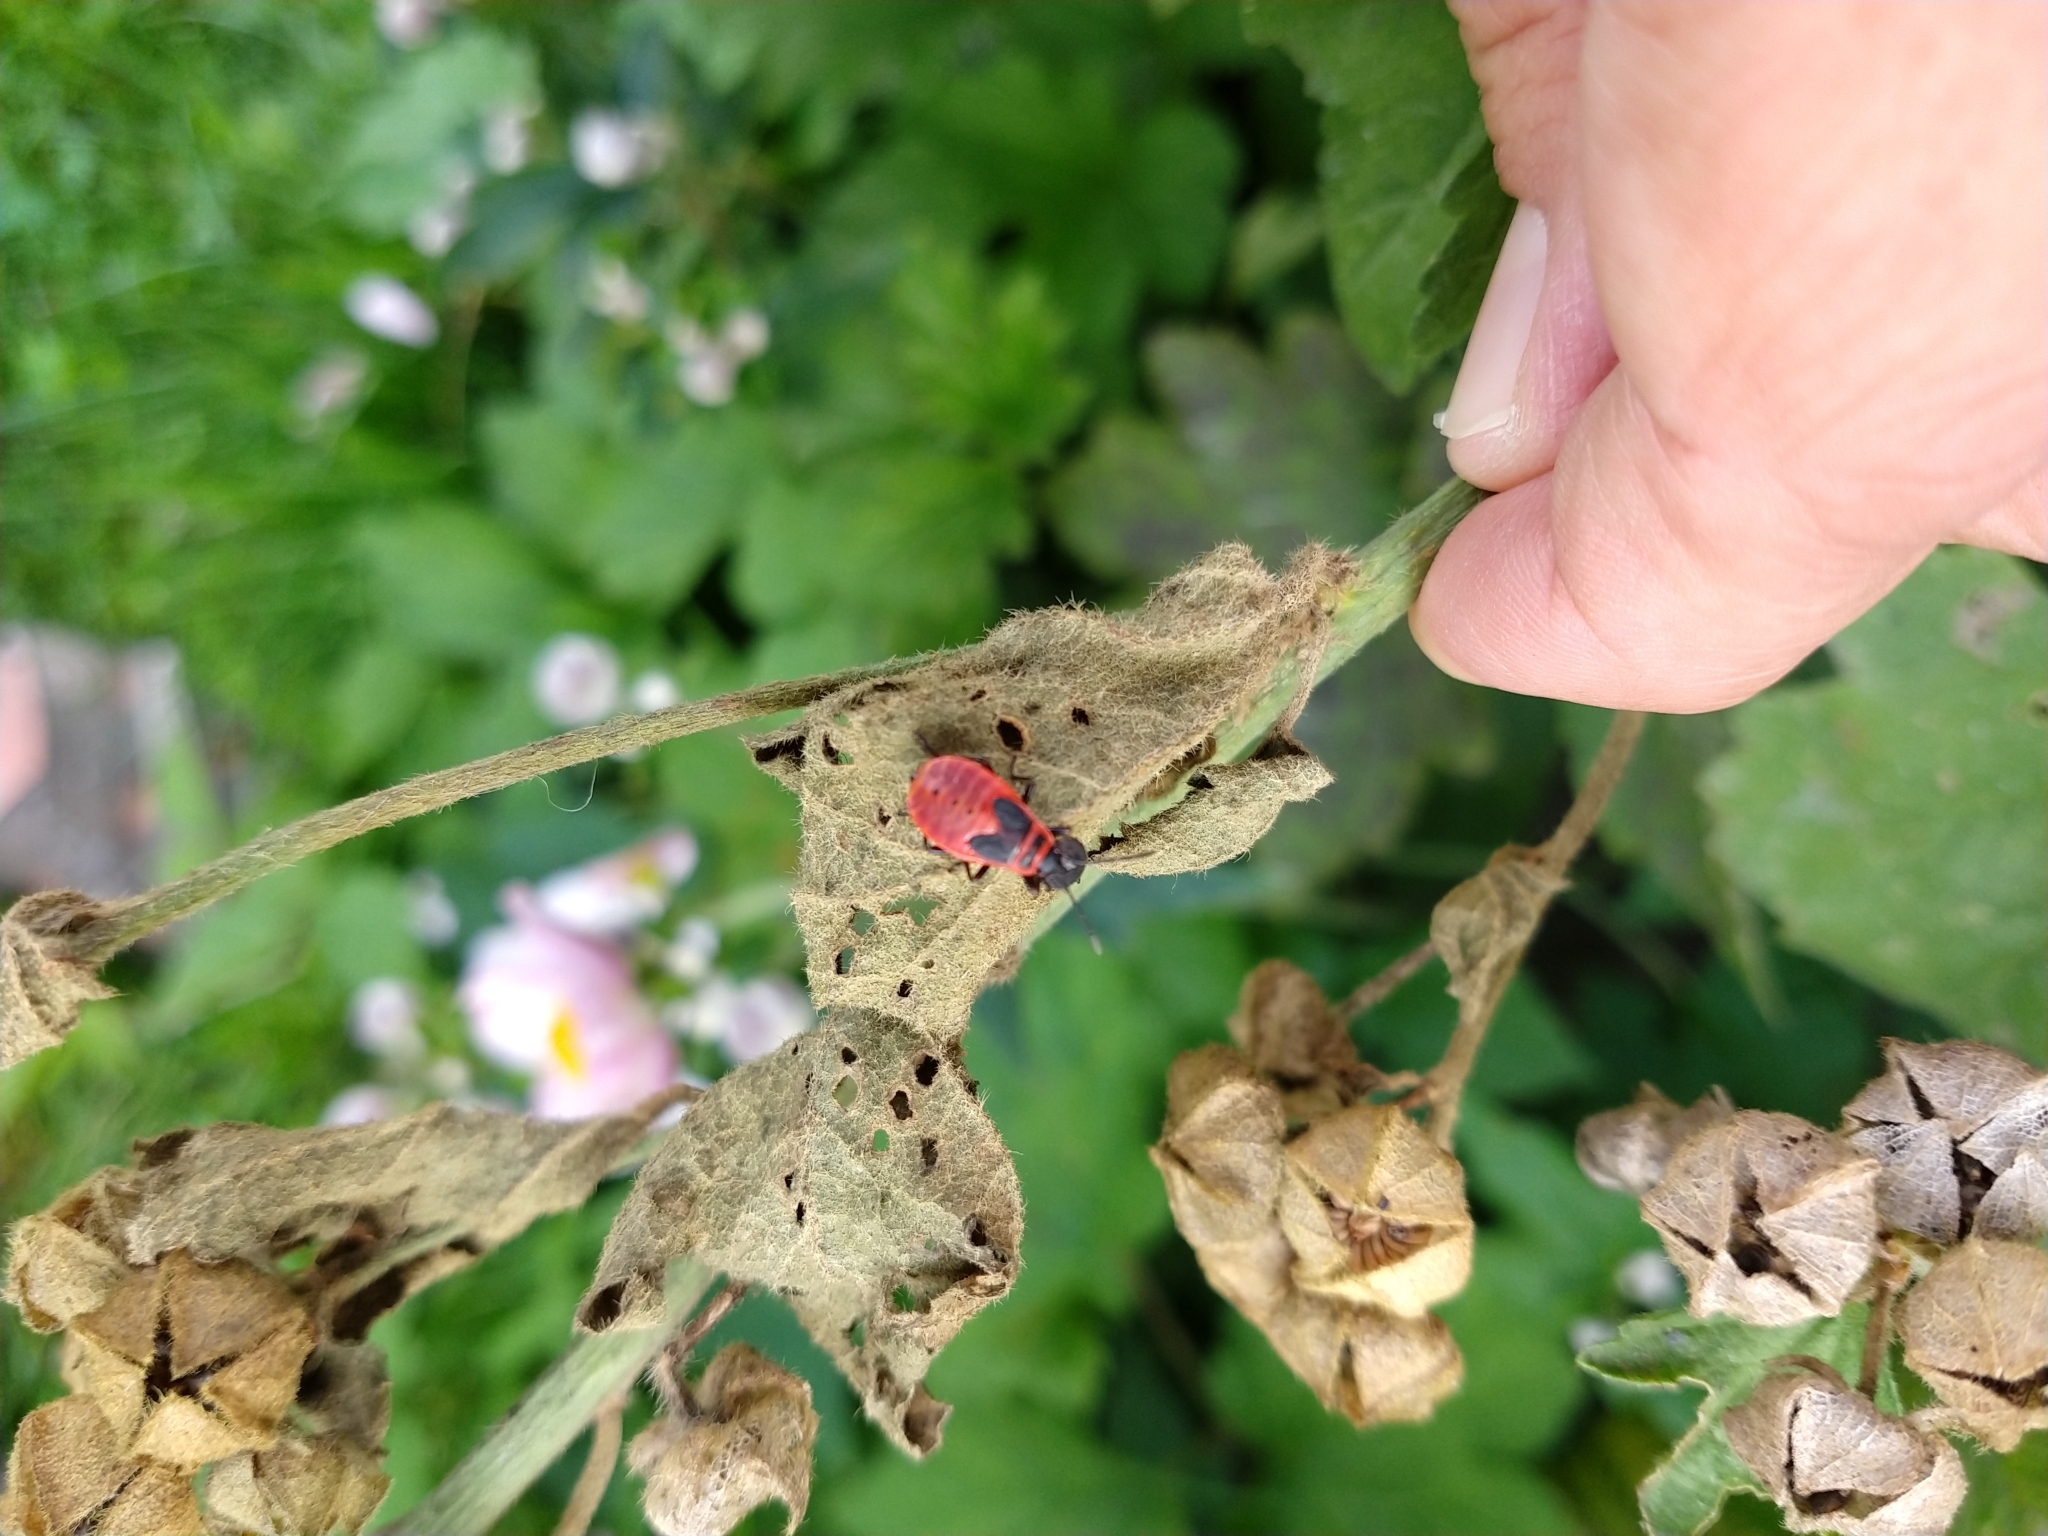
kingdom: Animalia
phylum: Arthropoda
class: Insecta
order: Hemiptera
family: Pyrrhocoridae
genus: Pyrrhocoris
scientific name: Pyrrhocoris apterus
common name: Firebug
